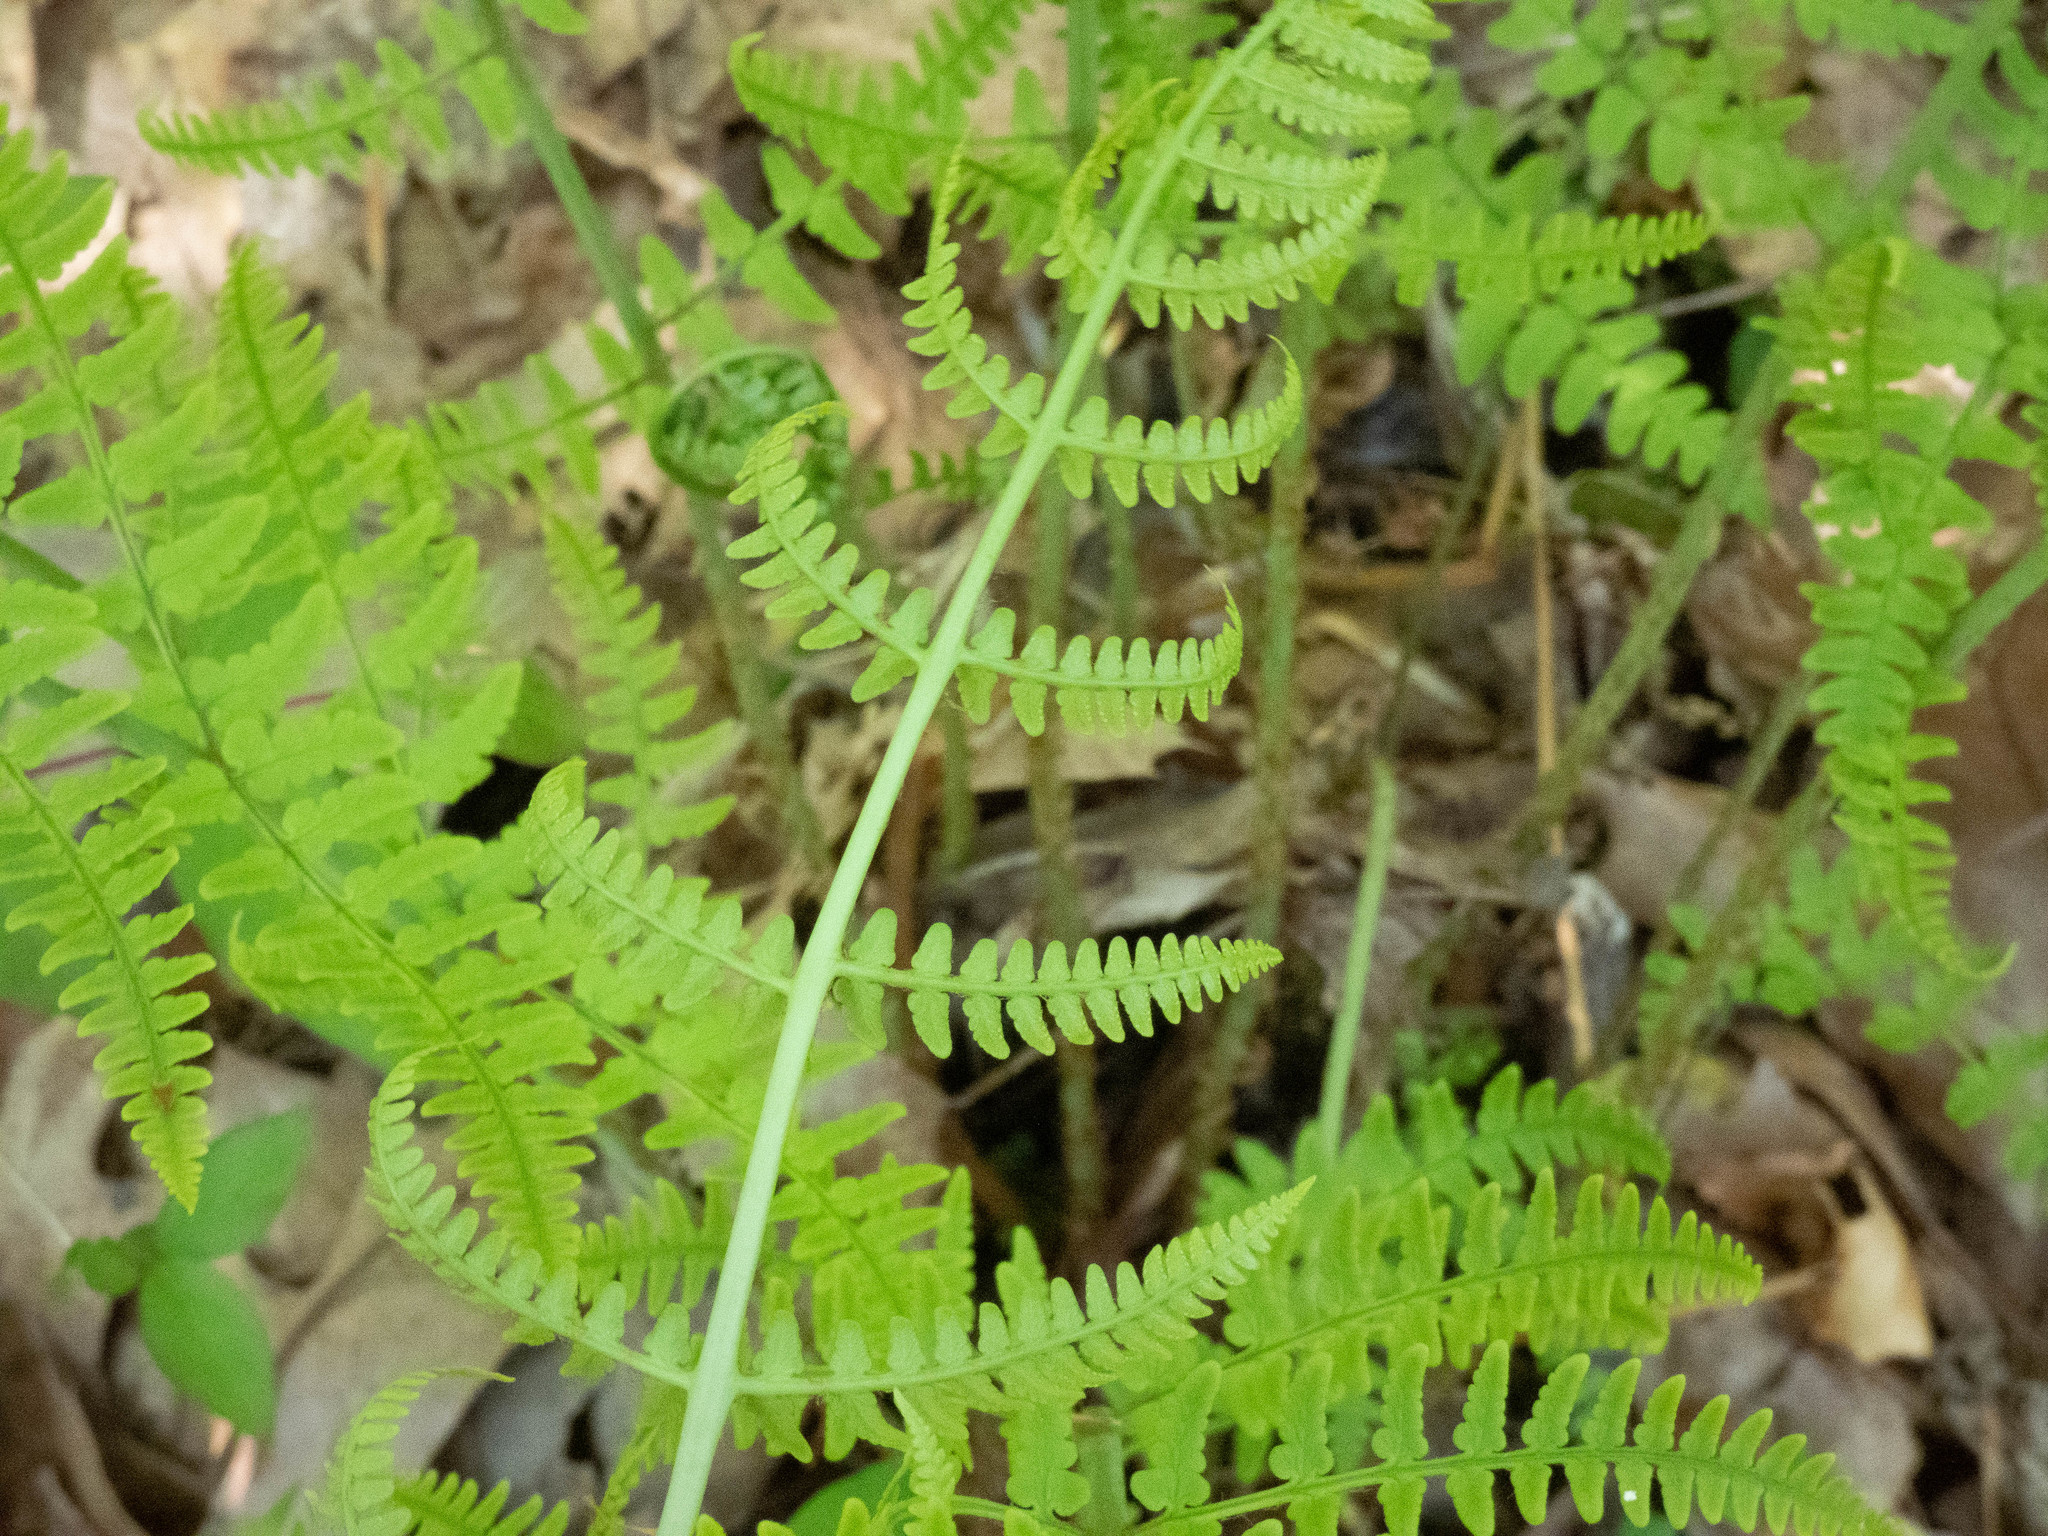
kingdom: Plantae
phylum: Tracheophyta
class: Polypodiopsida
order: Polypodiales
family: Dryopteridaceae
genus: Dryopteris
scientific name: Dryopteris marginalis
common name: Marginal wood fern
